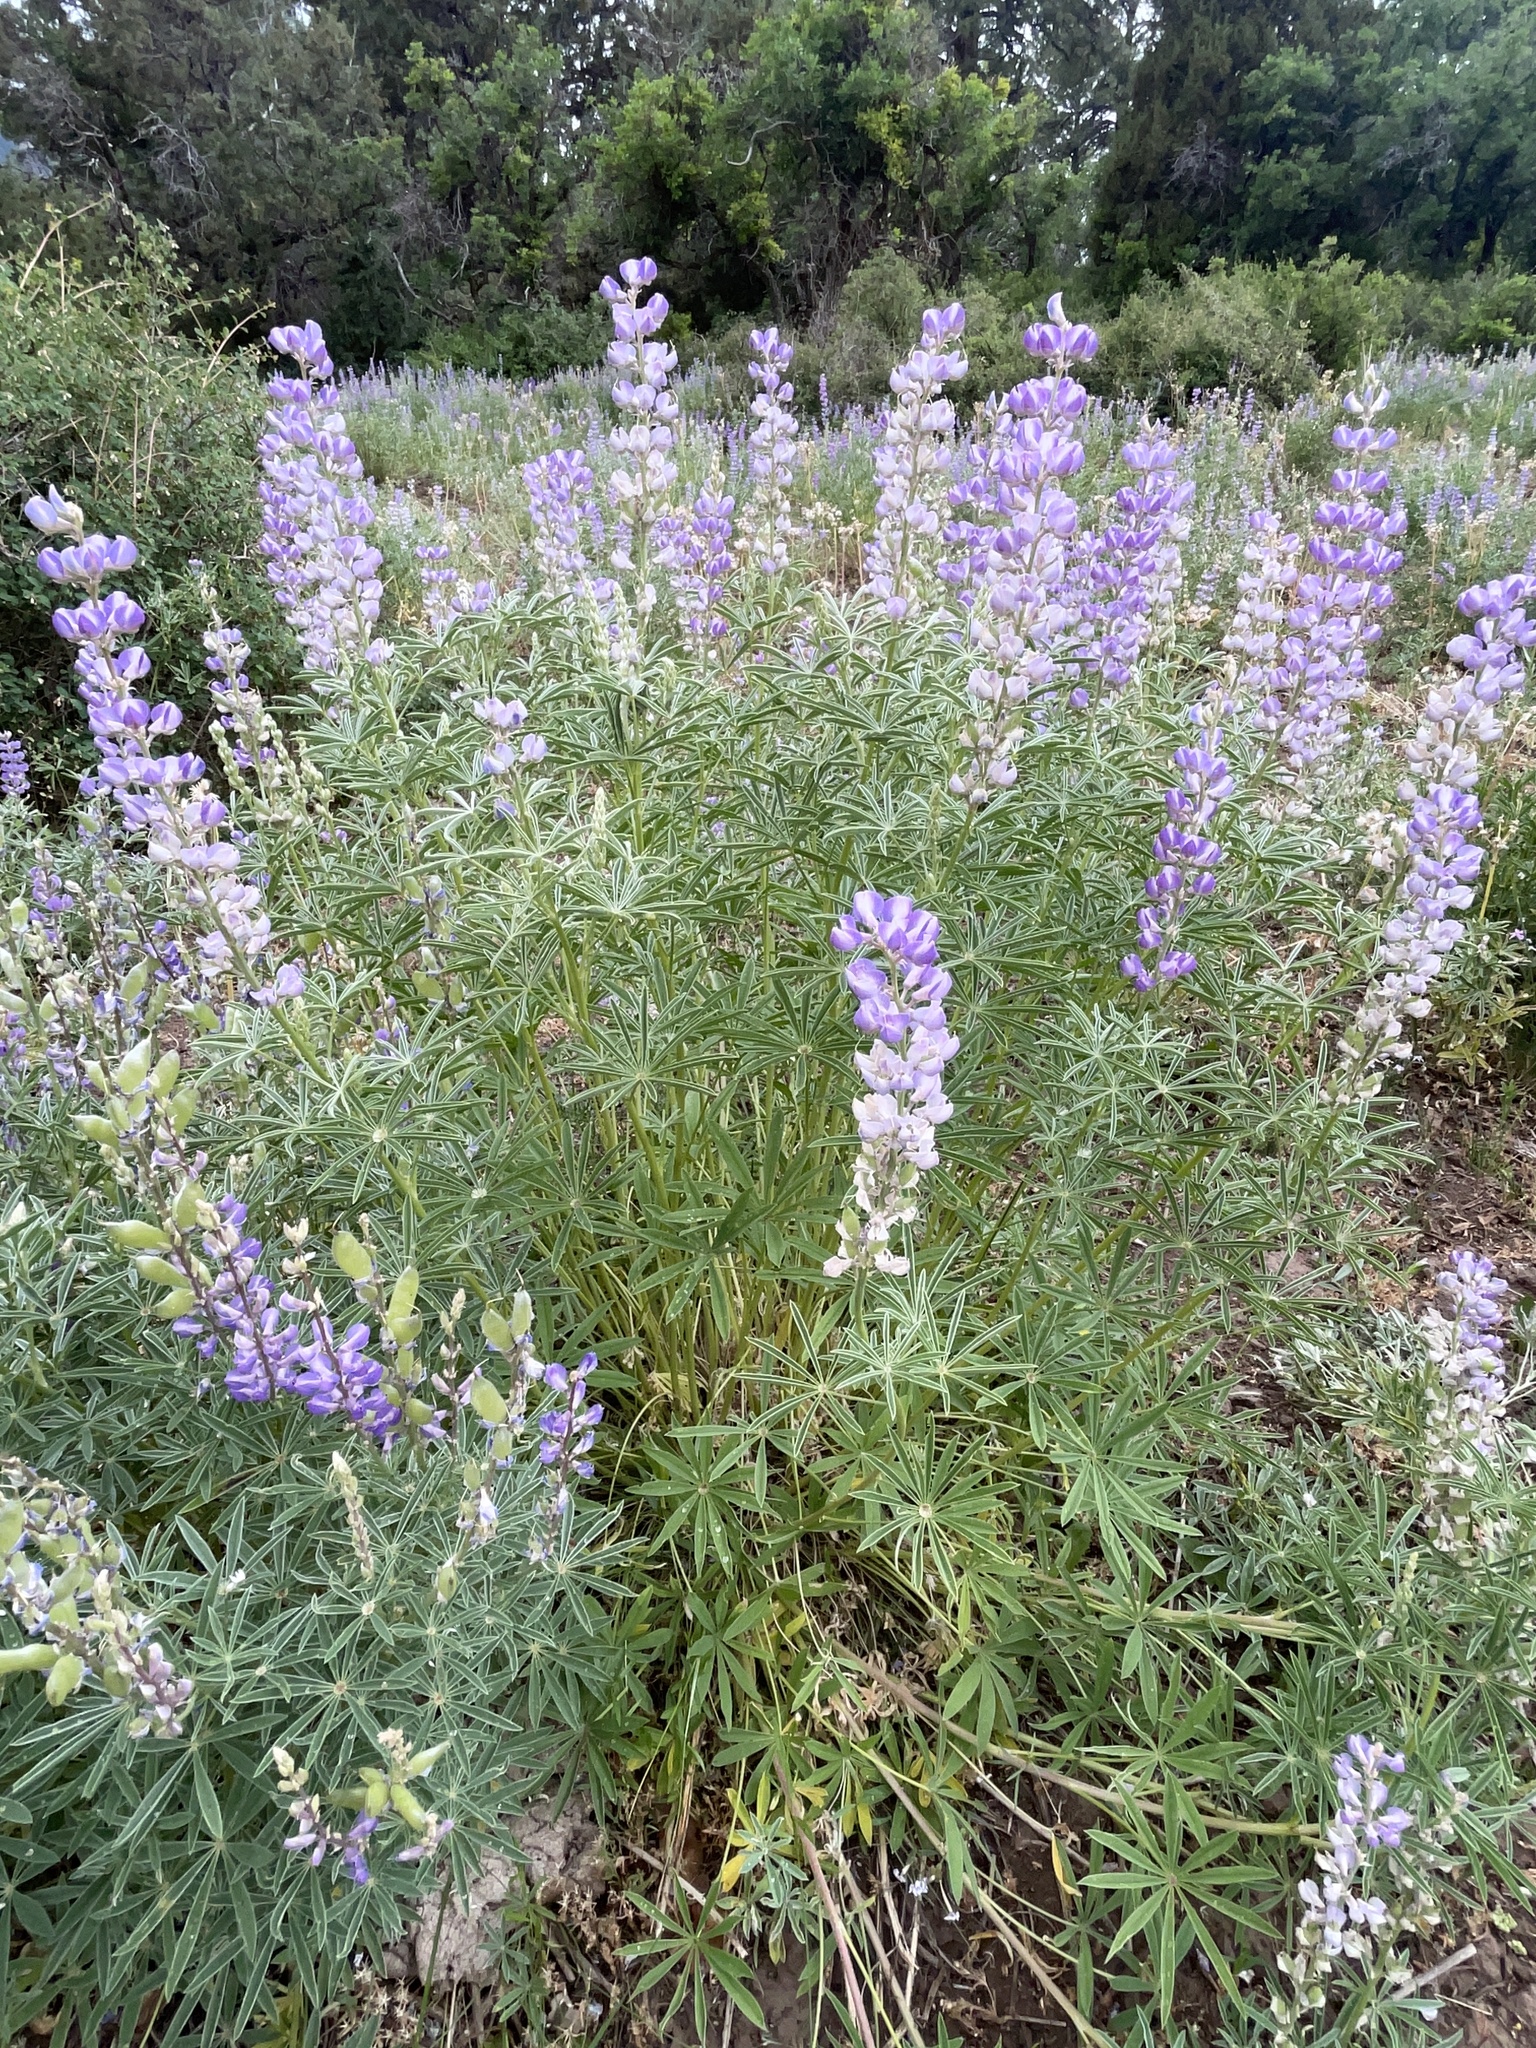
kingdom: Plantae
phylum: Tracheophyta
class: Magnoliopsida
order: Fabales
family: Fabaceae
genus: Lupinus
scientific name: Lupinus argenteus
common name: Silvery lupine
